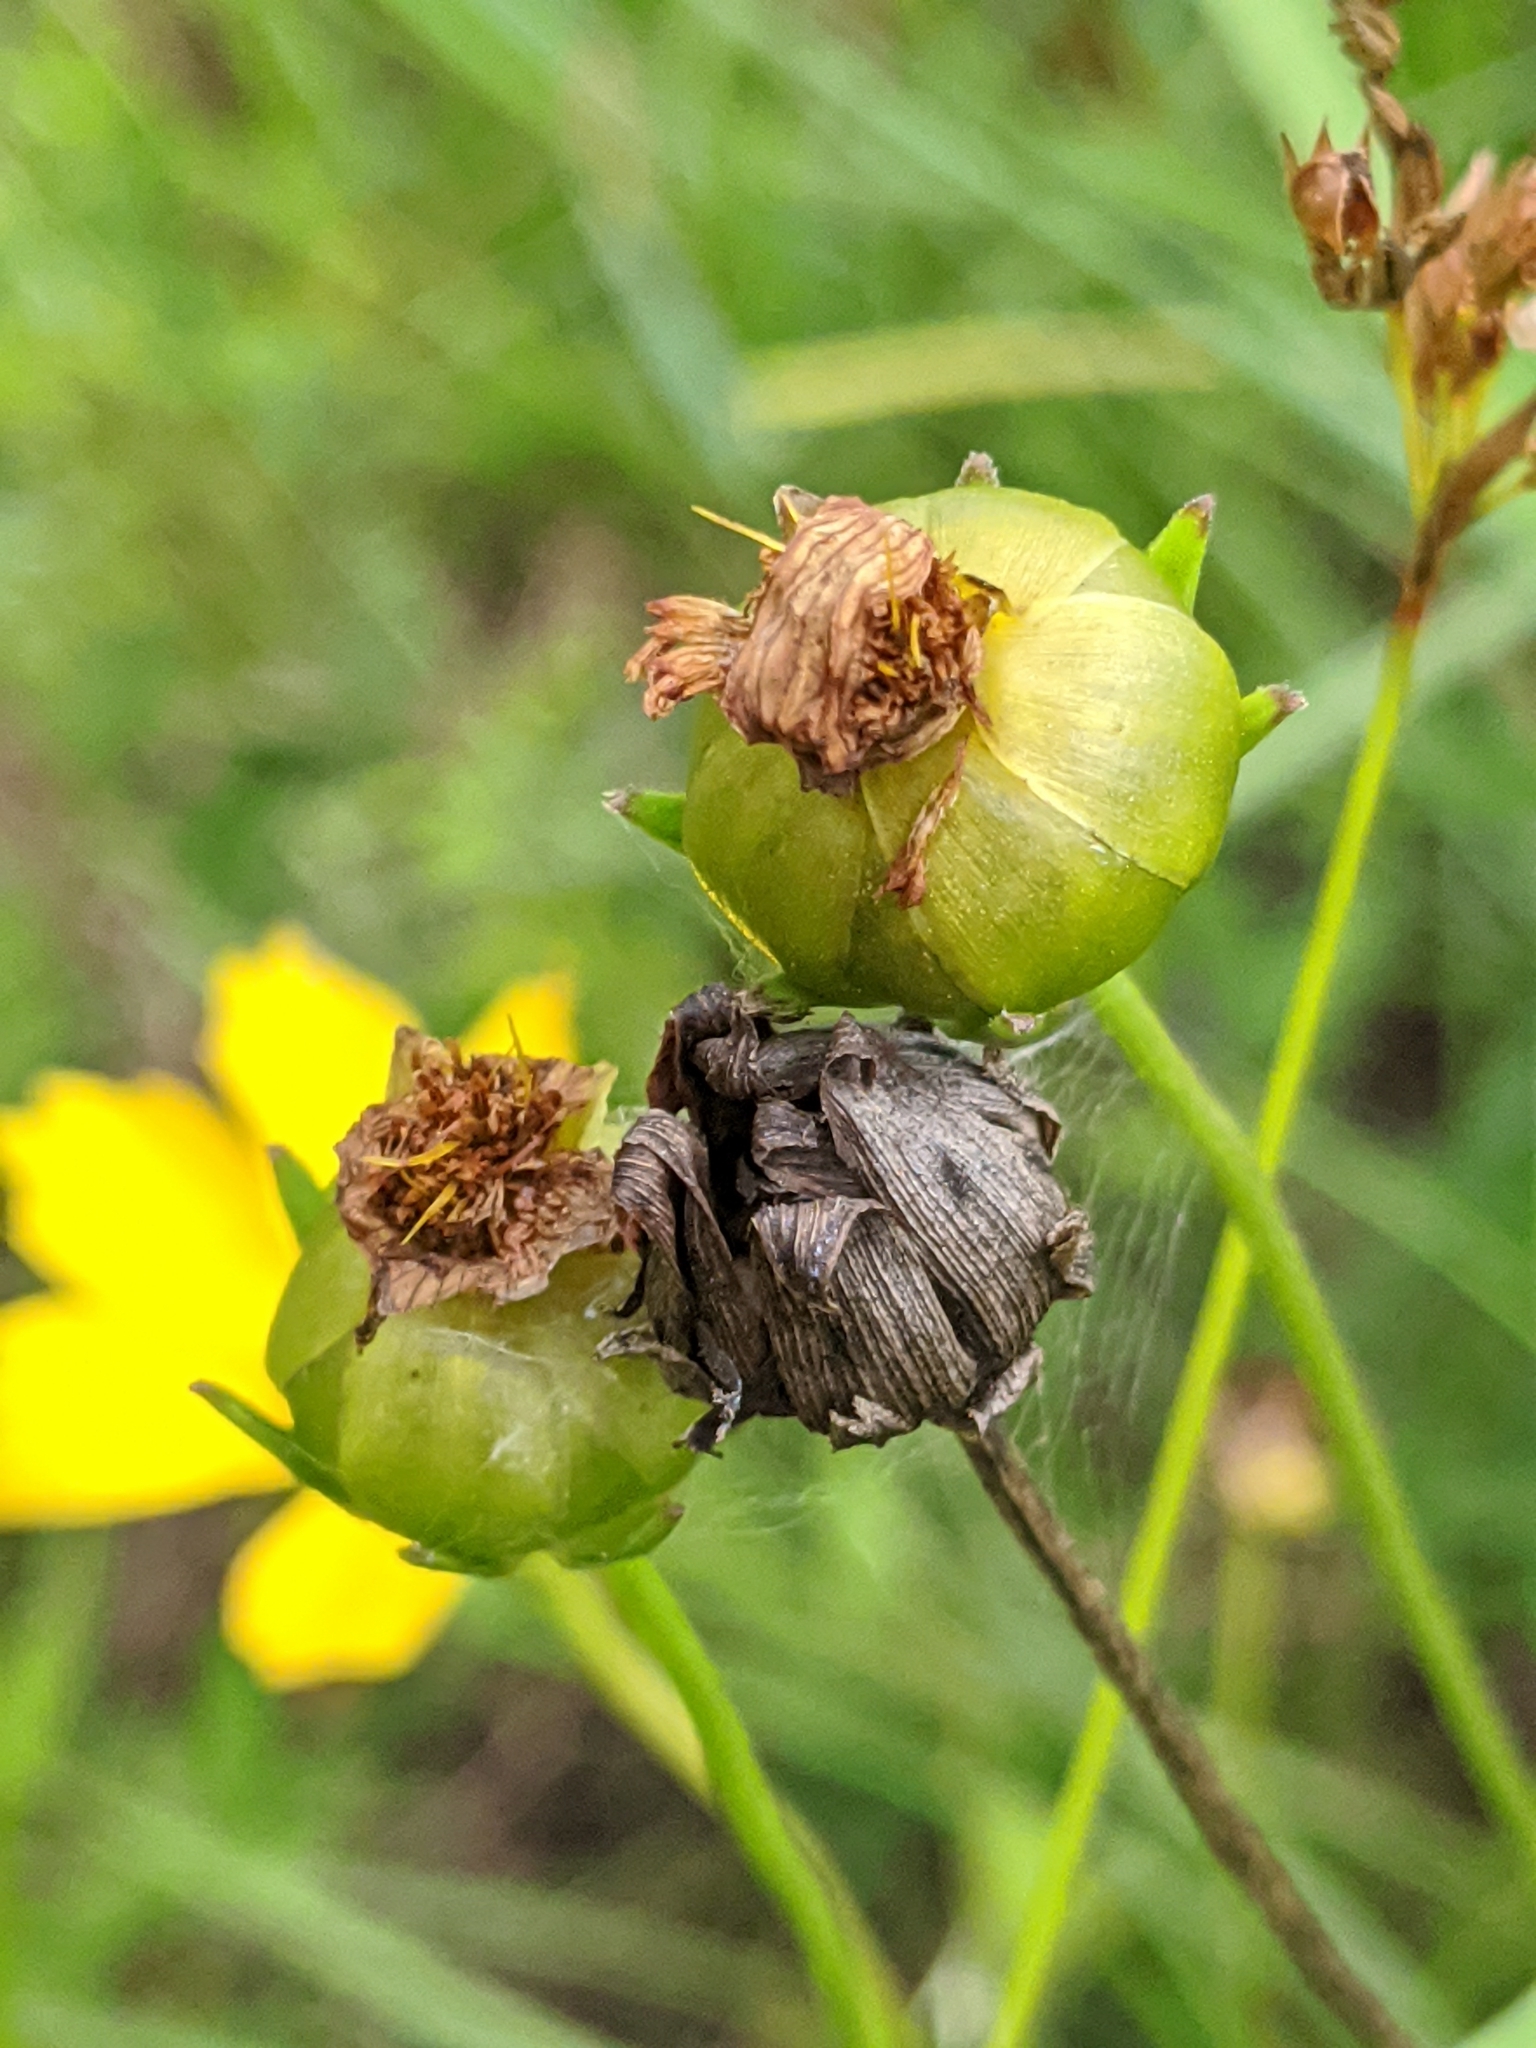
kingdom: Plantae
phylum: Tracheophyta
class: Magnoliopsida
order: Asterales
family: Asteraceae
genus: Coreopsis
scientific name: Coreopsis lanceolata
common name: Garden coreopsis
